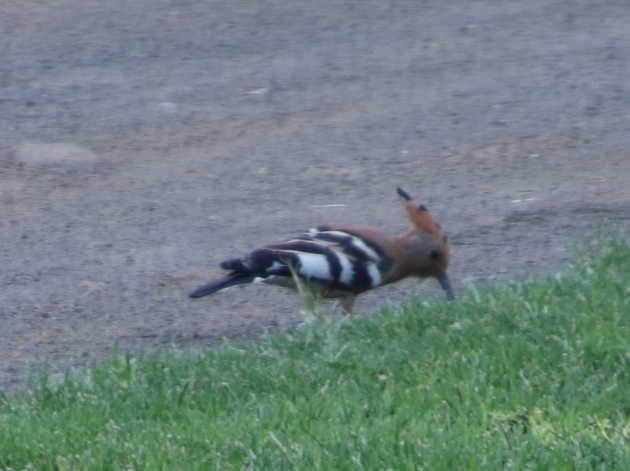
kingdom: Animalia
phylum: Chordata
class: Aves
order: Bucerotiformes
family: Upupidae
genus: Upupa
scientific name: Upupa africana
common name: African hoopoe
